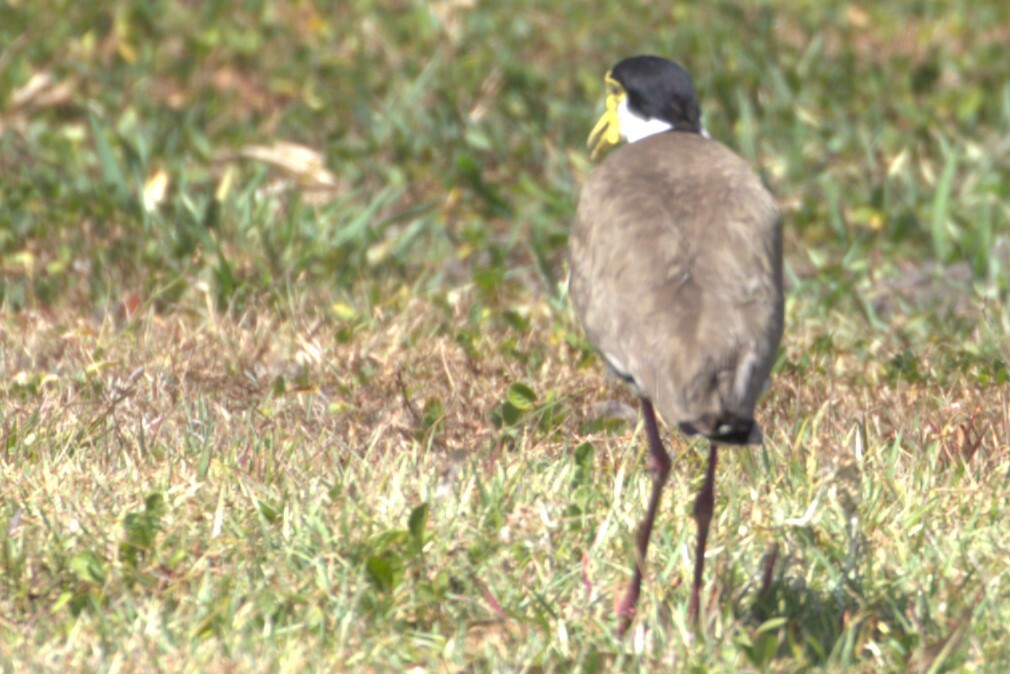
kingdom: Animalia
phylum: Chordata
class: Aves
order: Charadriiformes
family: Charadriidae
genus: Vanellus
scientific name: Vanellus miles
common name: Masked lapwing
